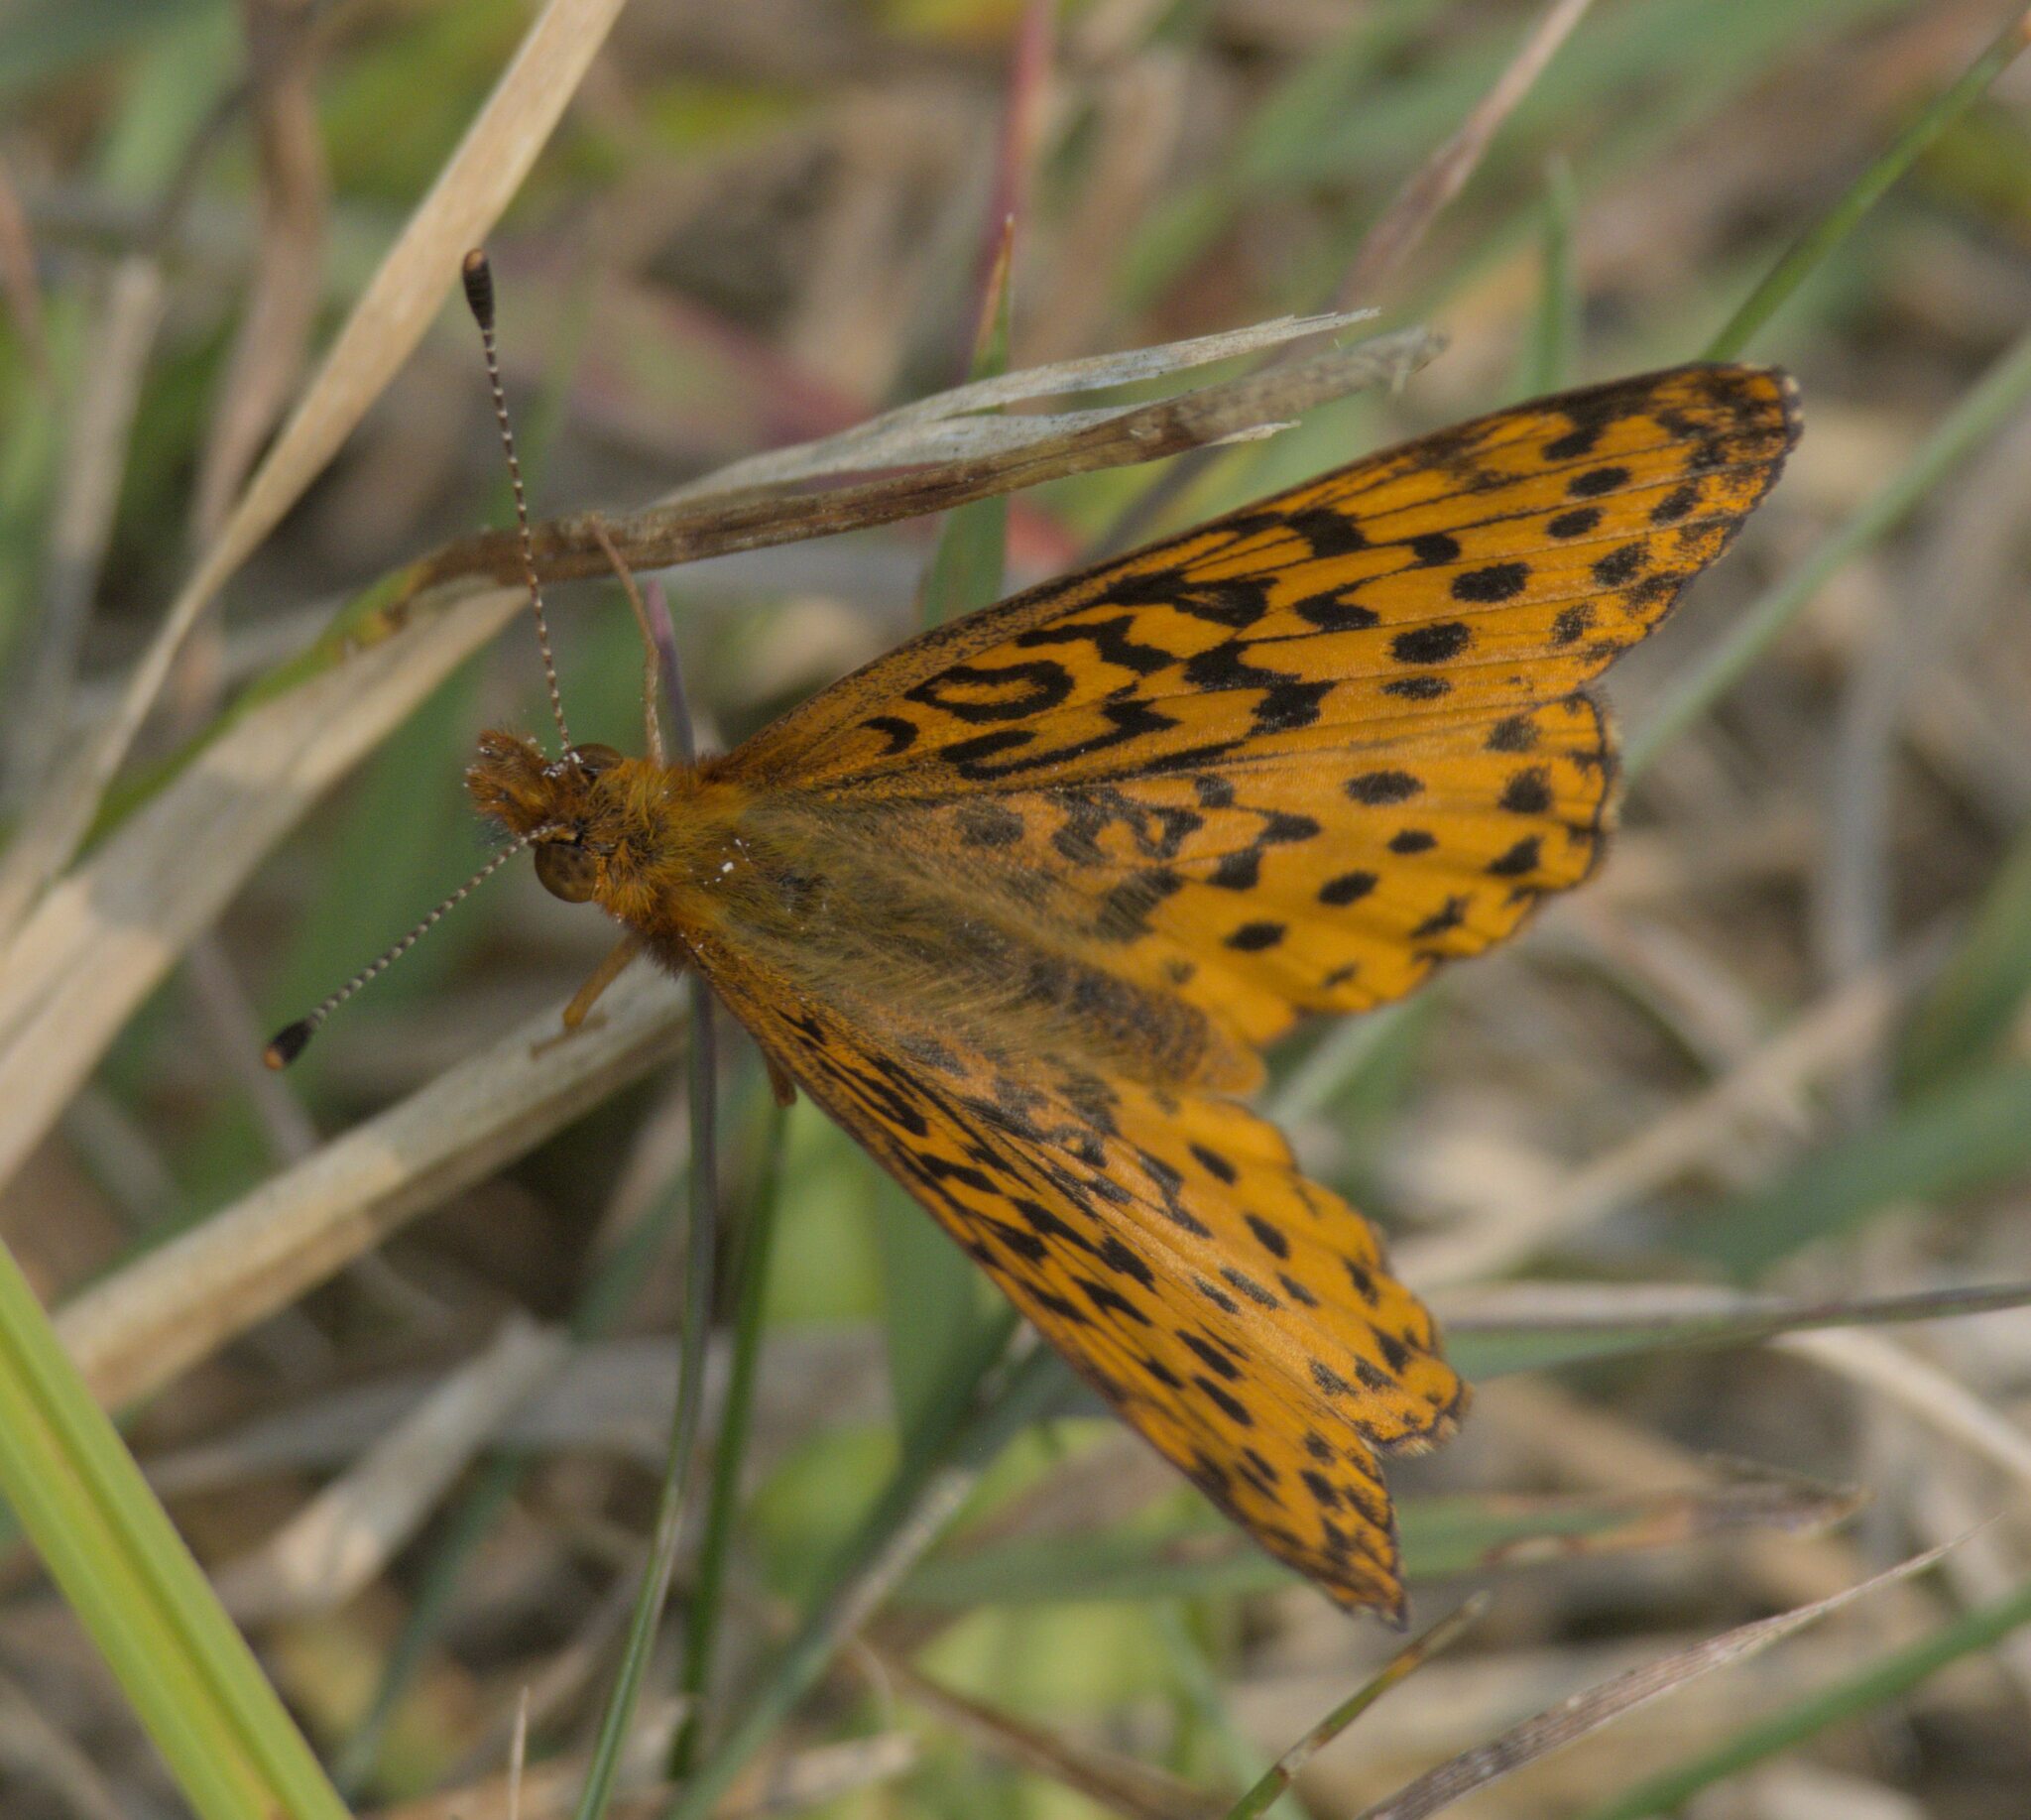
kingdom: Animalia
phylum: Arthropoda
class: Insecta
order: Lepidoptera
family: Nymphalidae
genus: Clossiana
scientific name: Clossiana toddi
